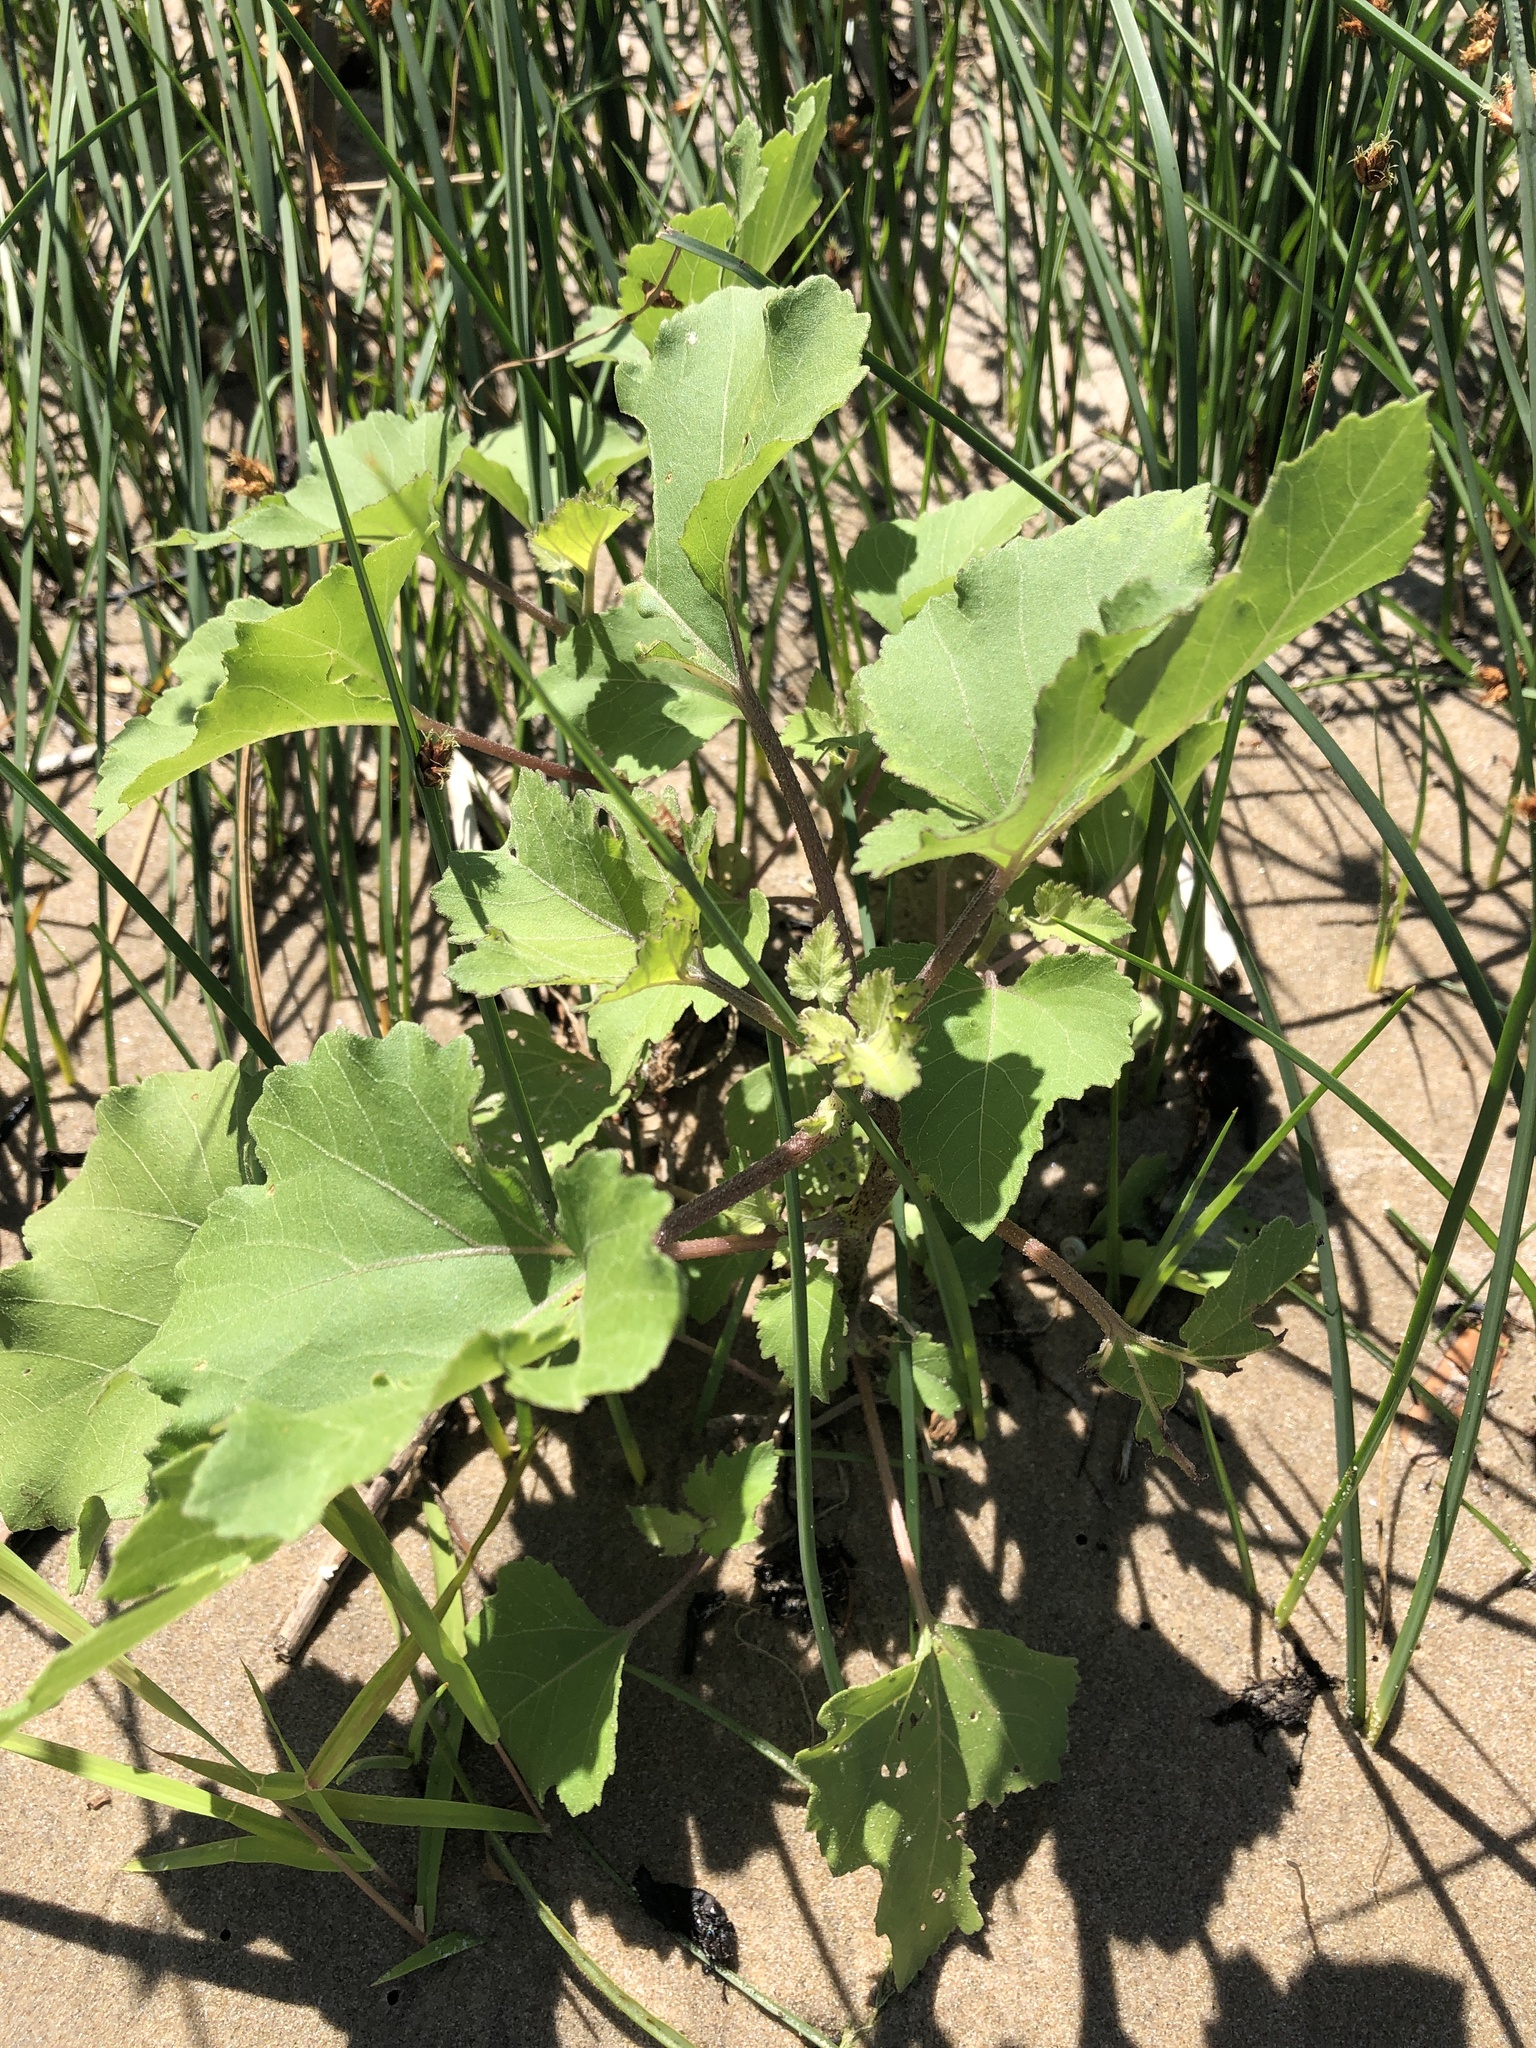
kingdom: Plantae
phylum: Tracheophyta
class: Magnoliopsida
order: Asterales
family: Asteraceae
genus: Xanthium
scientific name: Xanthium strumarium
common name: Rough cocklebur
